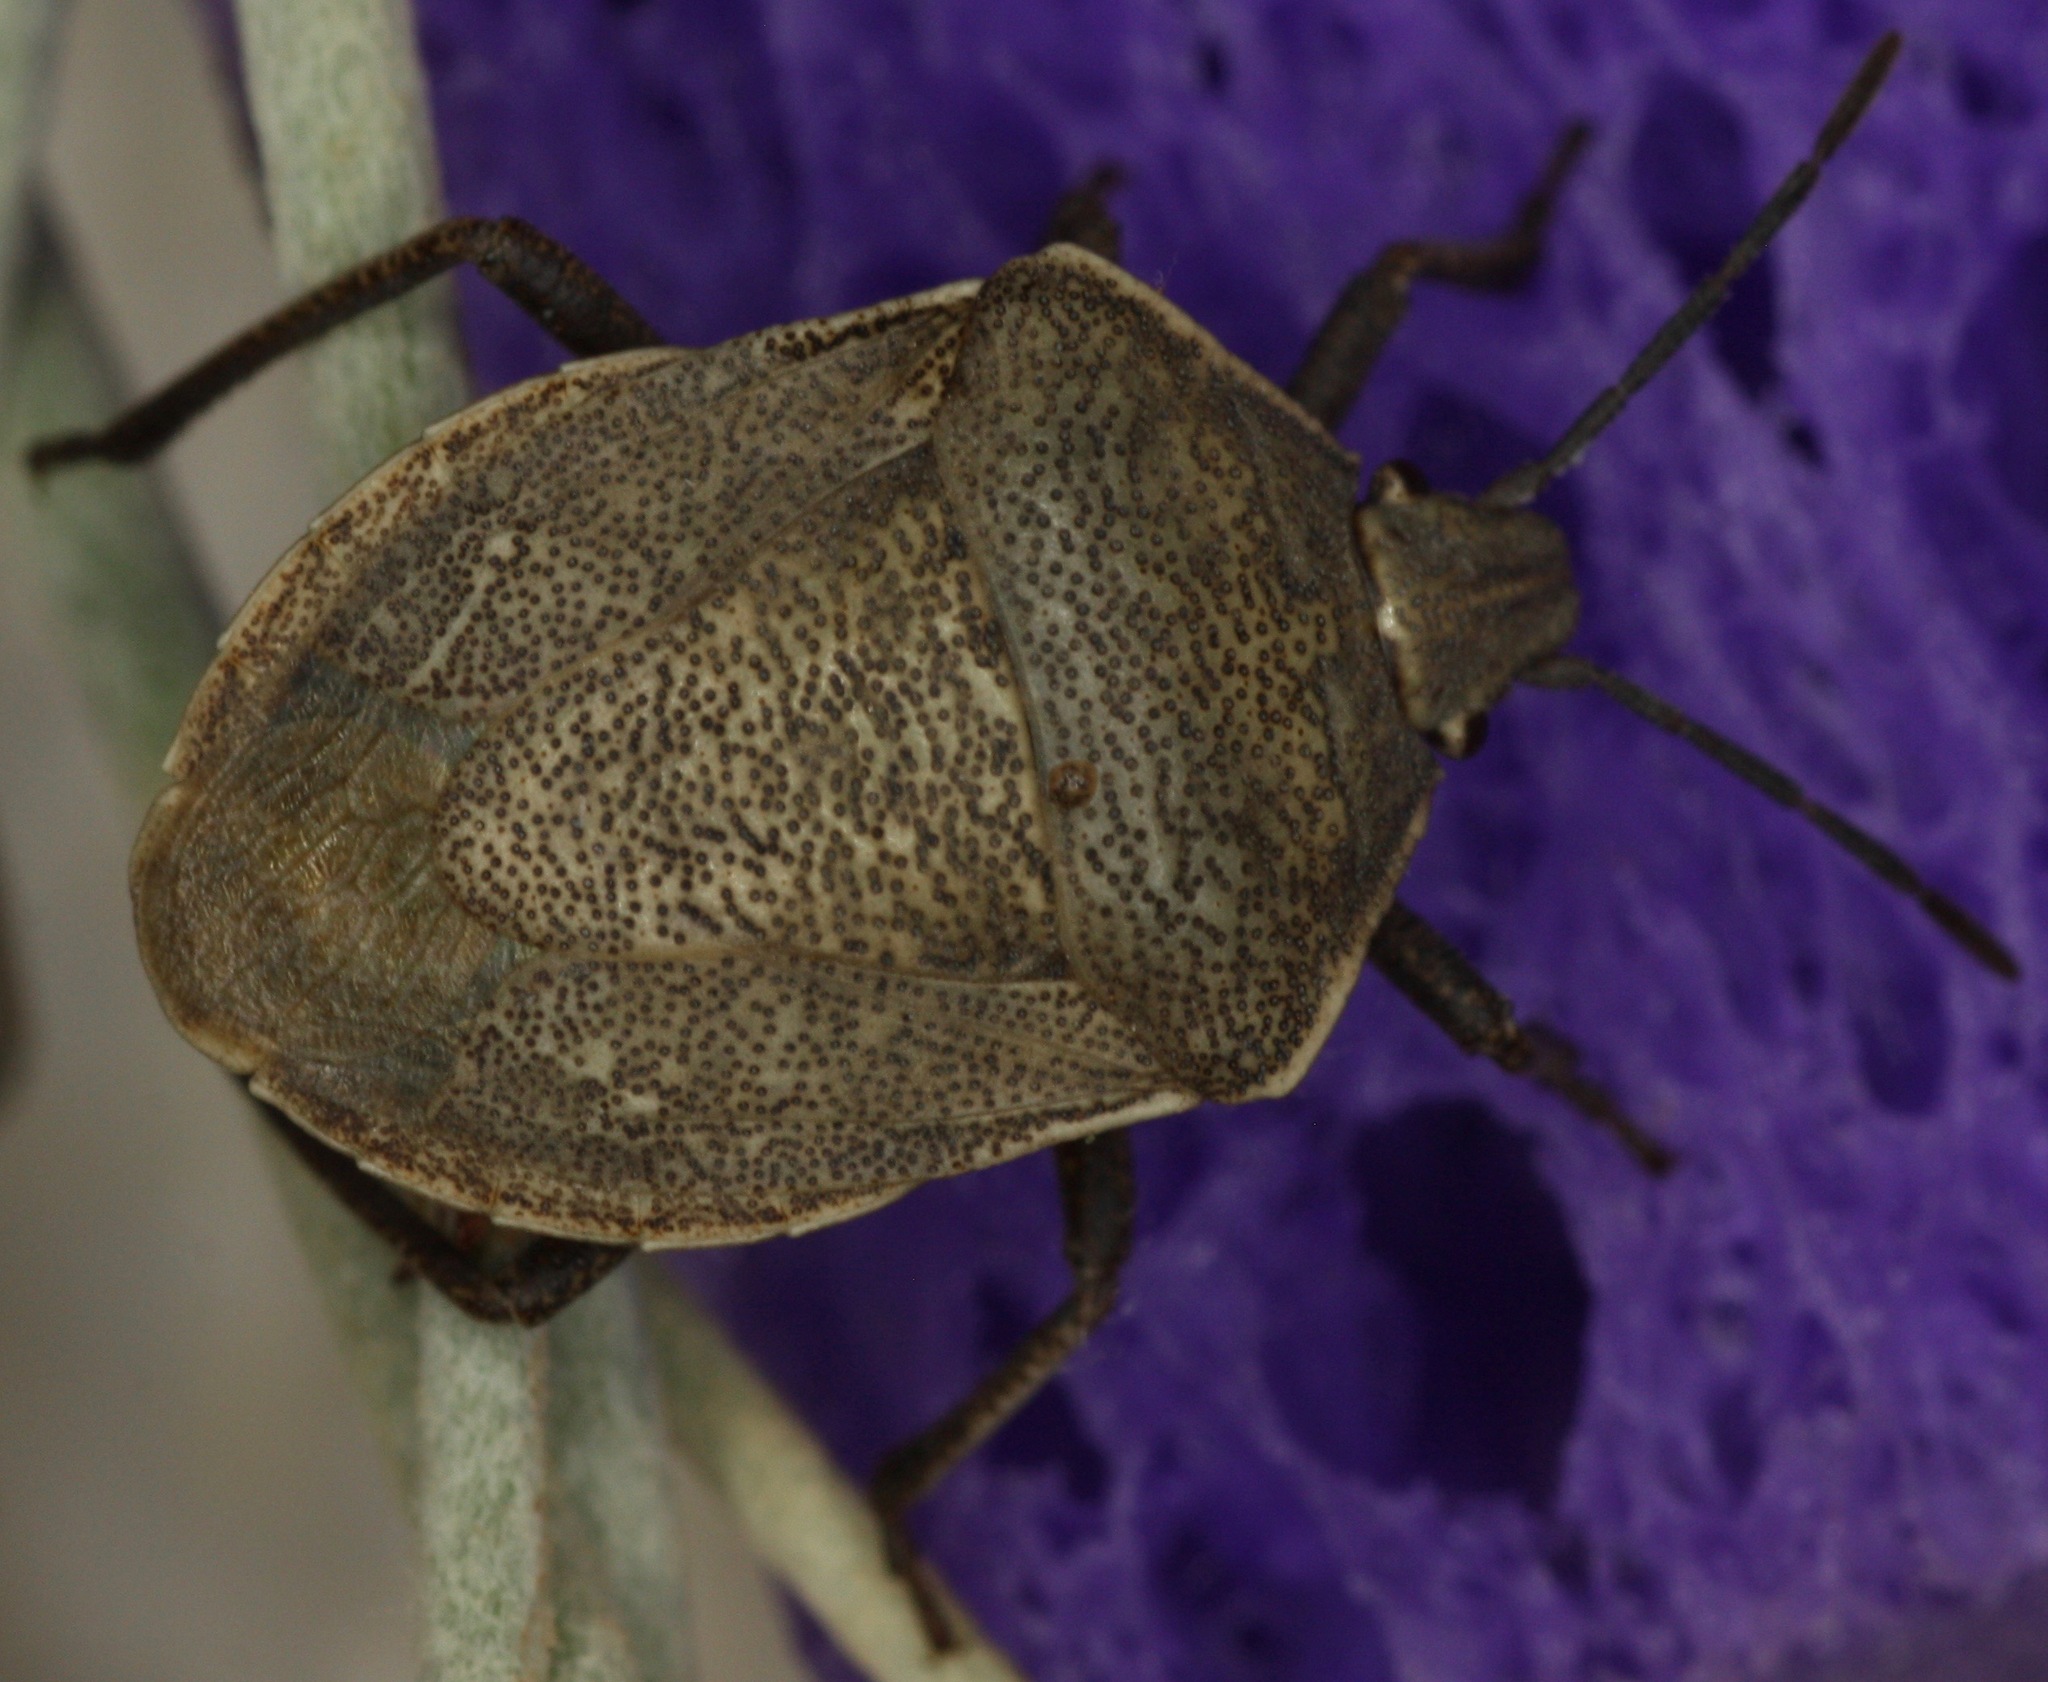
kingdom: Animalia
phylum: Arthropoda
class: Insecta
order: Hemiptera
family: Pentatomidae
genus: Hymenarcys
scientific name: Hymenarcys crassa
